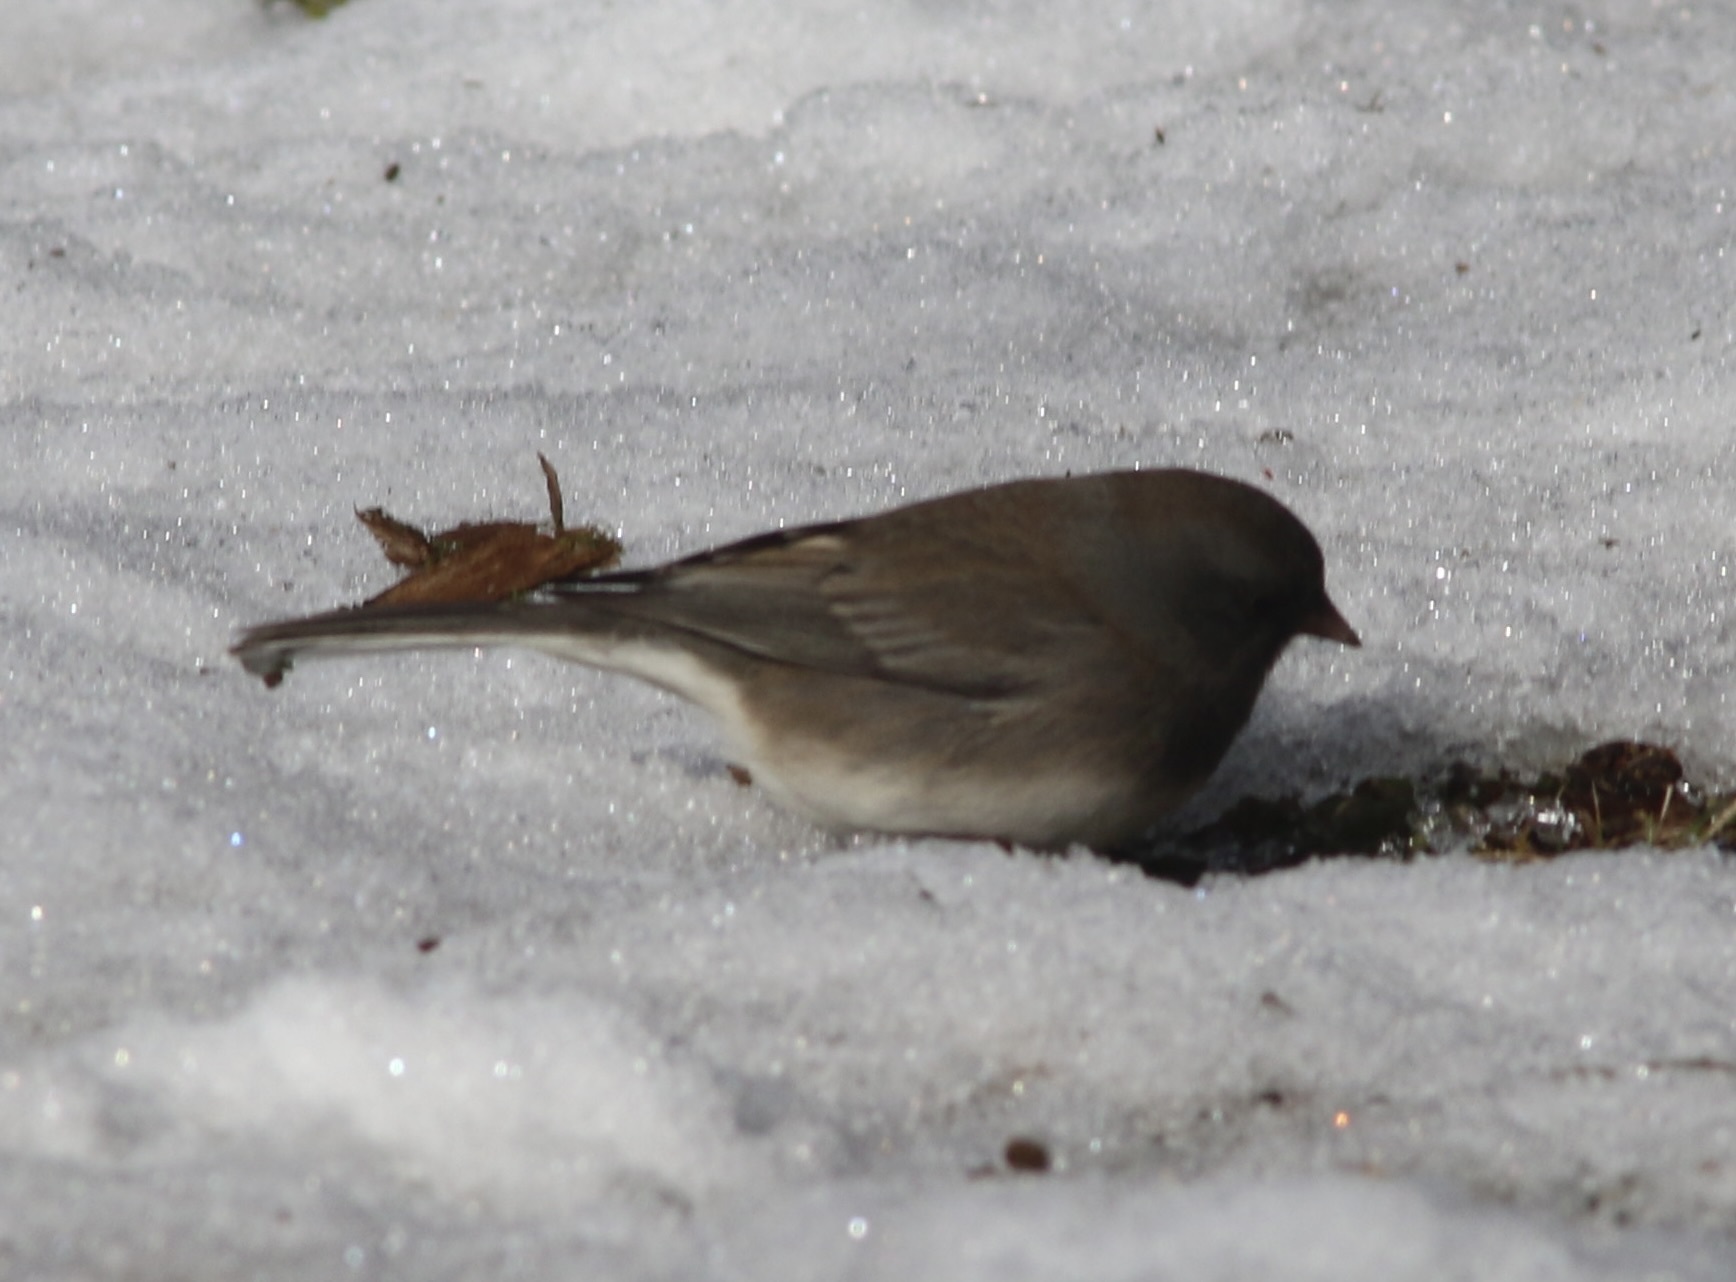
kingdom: Animalia
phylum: Chordata
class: Aves
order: Passeriformes
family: Passerellidae
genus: Junco
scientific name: Junco hyemalis
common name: Dark-eyed junco
